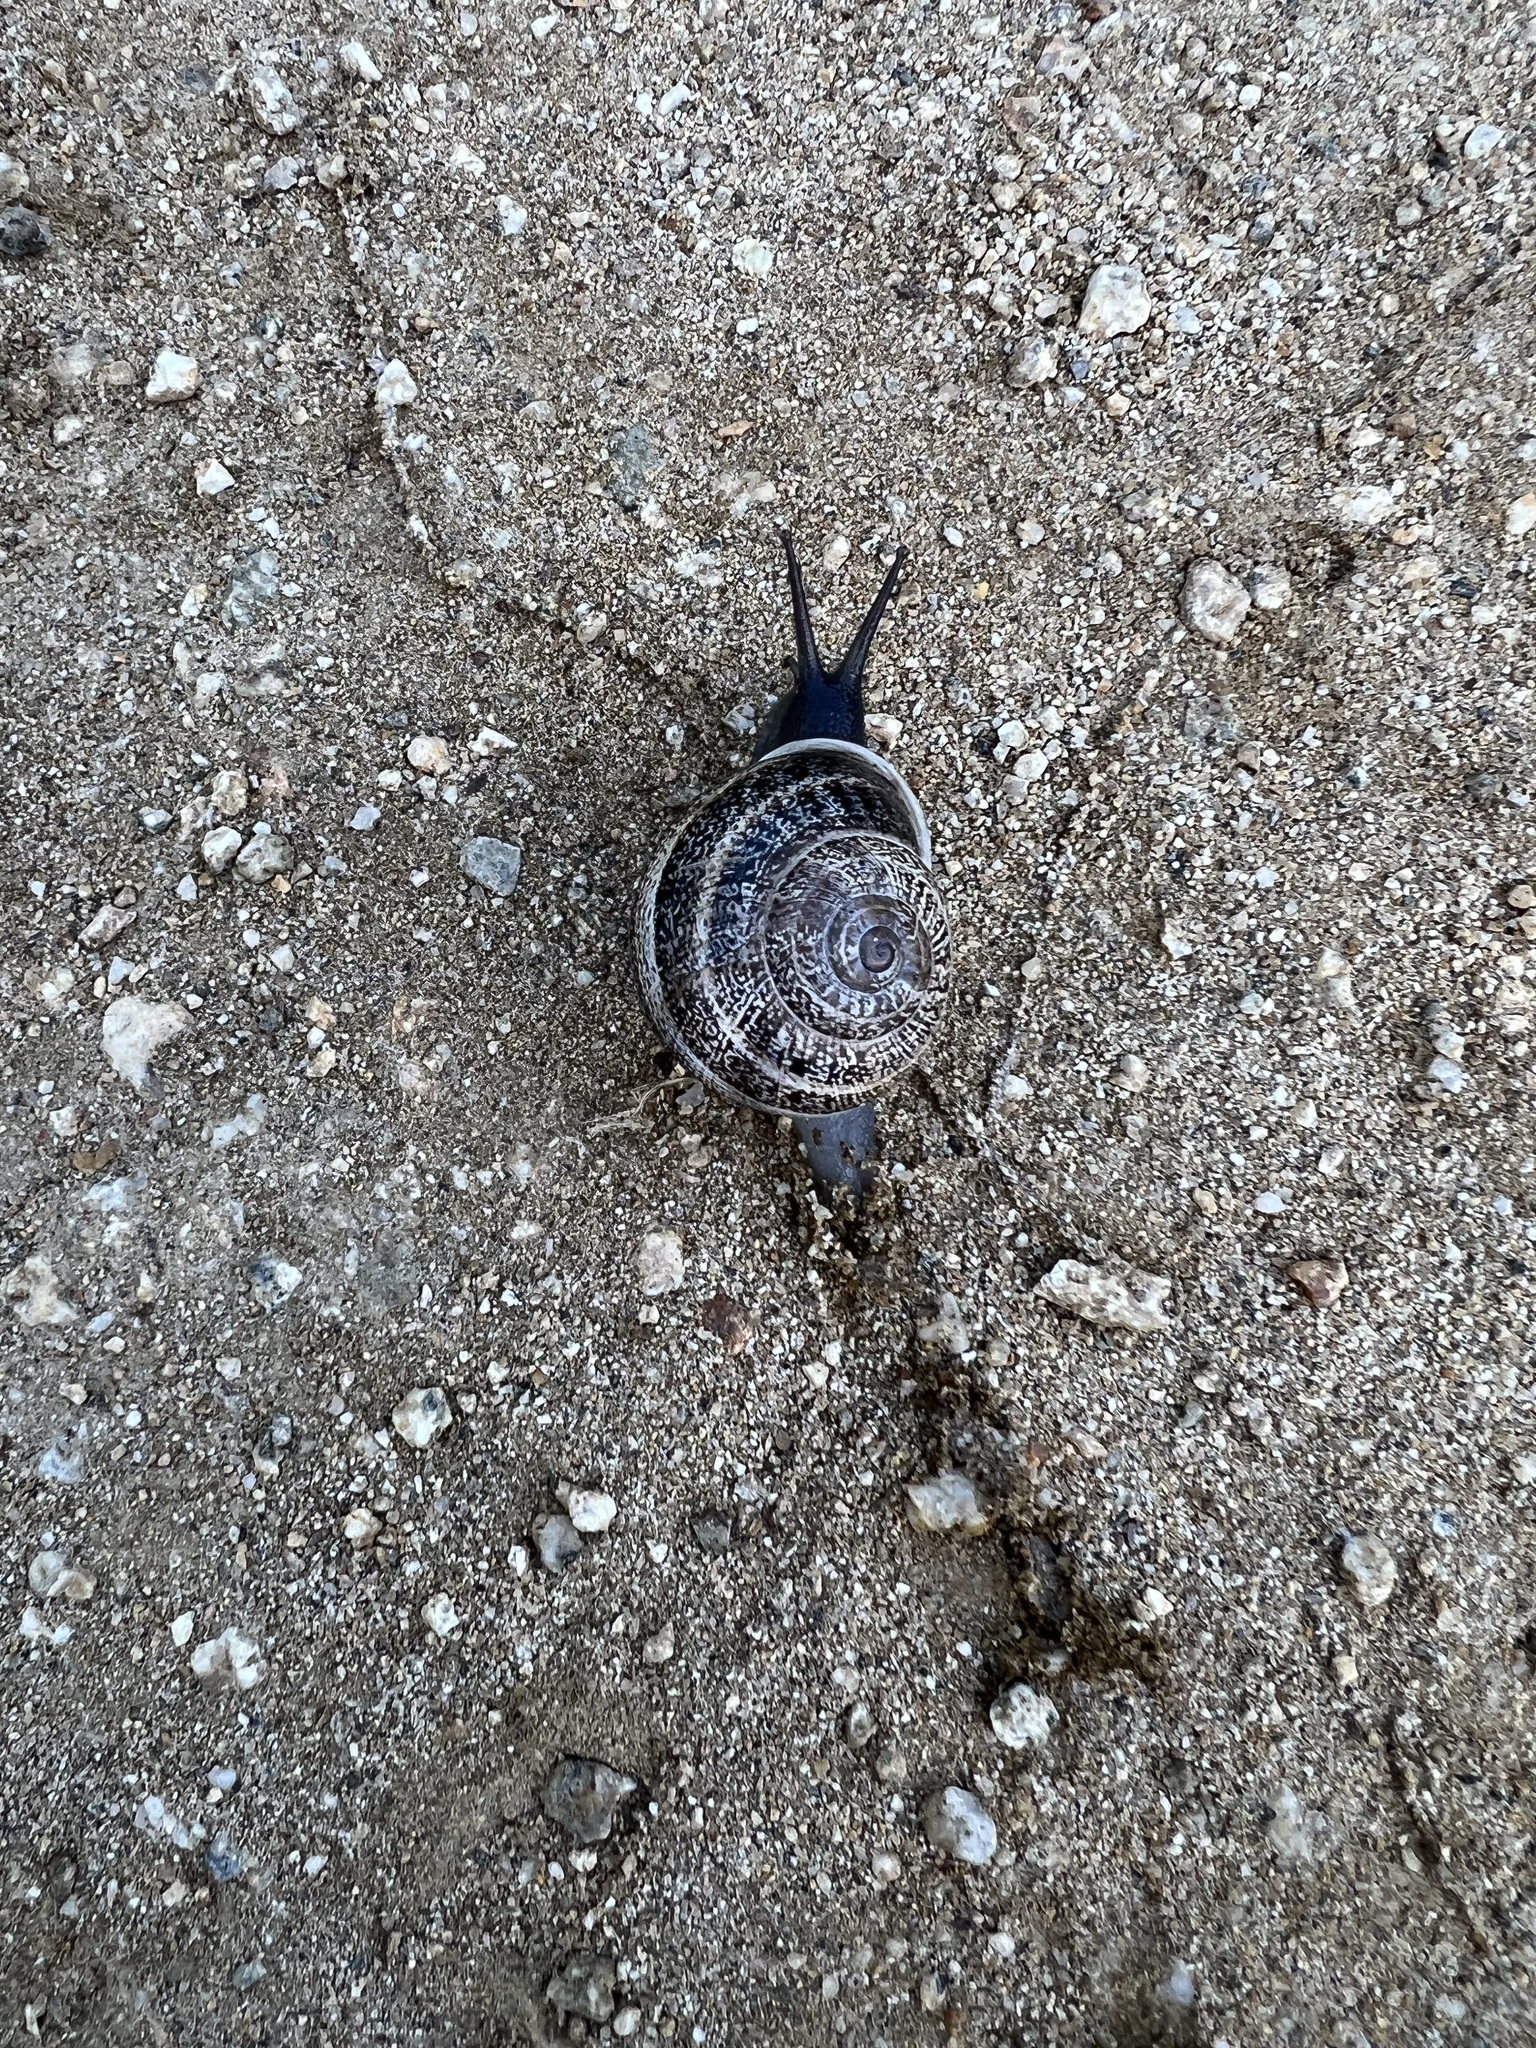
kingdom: Animalia
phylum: Mollusca
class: Gastropoda
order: Stylommatophora
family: Helicidae
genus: Otala
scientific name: Otala lactea
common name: Milk snail
